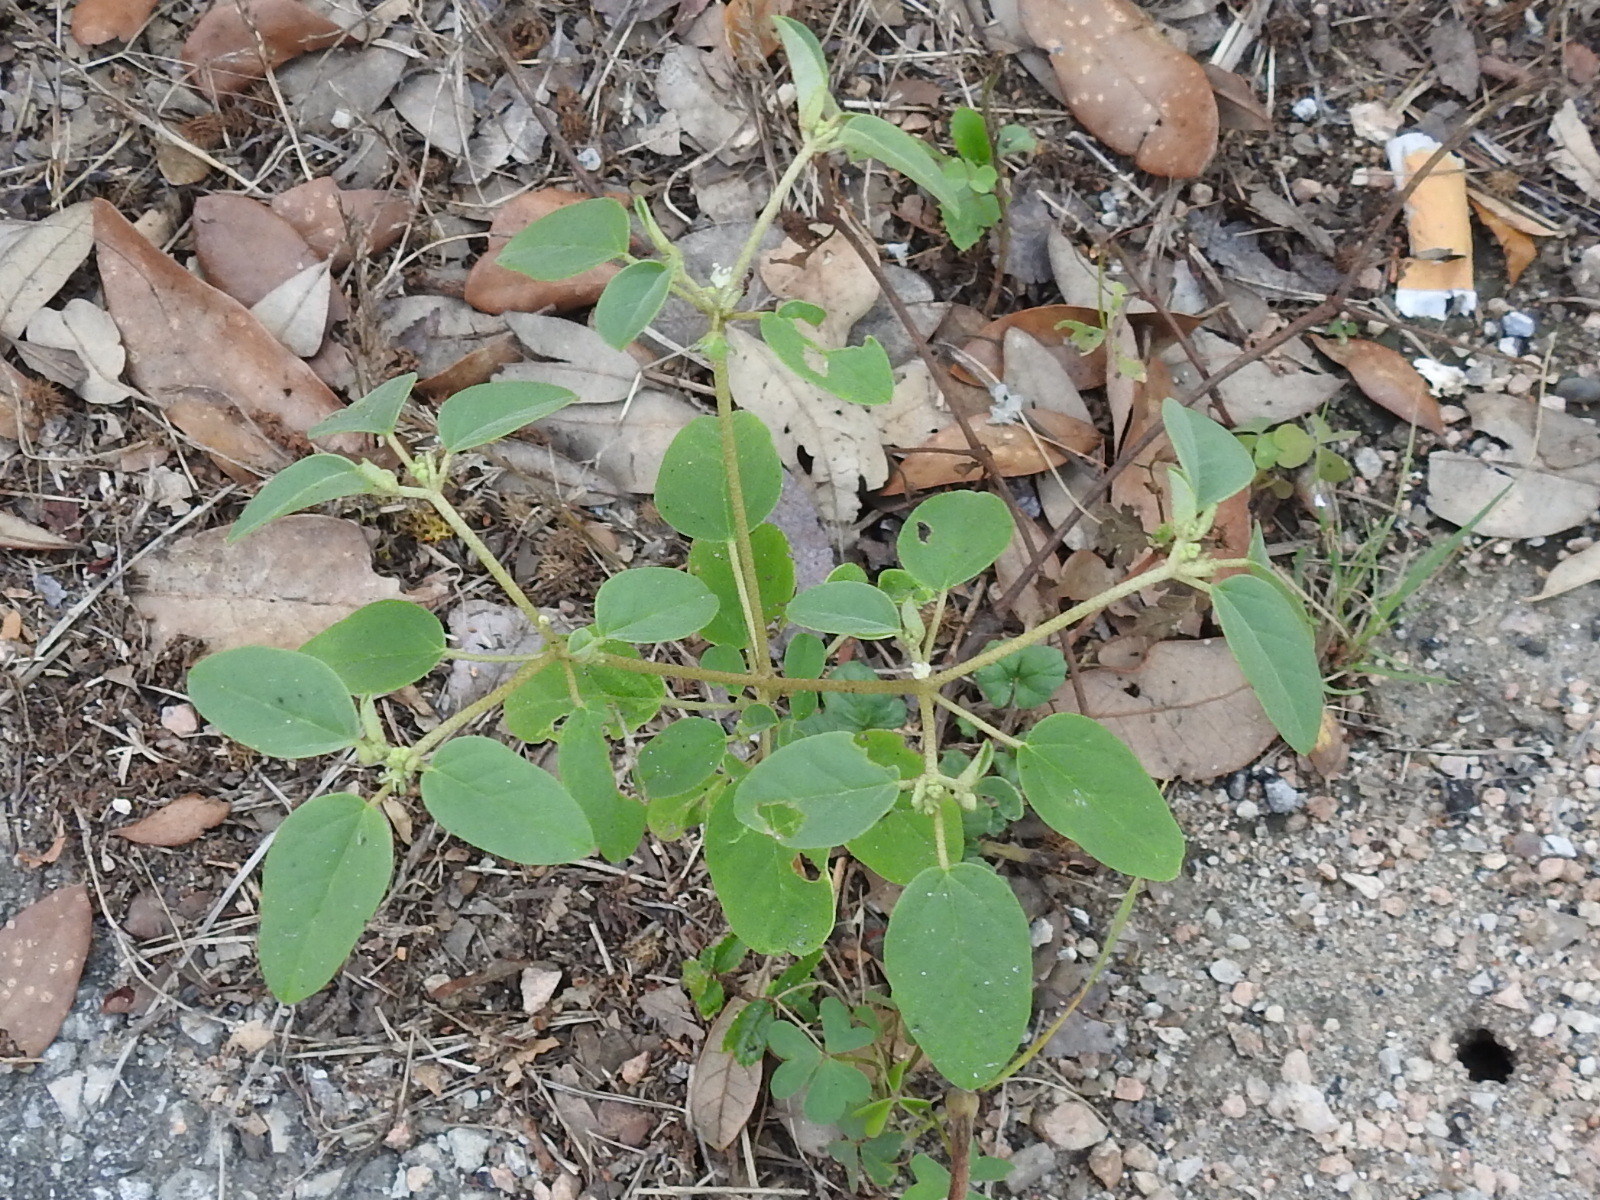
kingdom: Plantae
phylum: Tracheophyta
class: Magnoliopsida
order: Malpighiales
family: Euphorbiaceae
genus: Croton
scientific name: Croton monanthogynus
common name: One-seed croton
